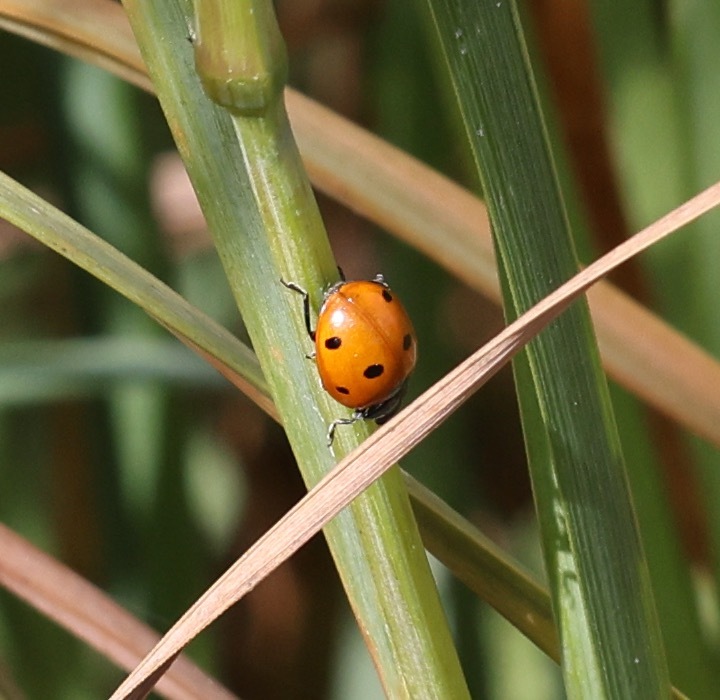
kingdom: Animalia
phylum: Arthropoda
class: Insecta
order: Coleoptera
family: Coccinellidae
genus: Coccinella
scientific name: Coccinella septempunctata
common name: Sevenspotted lady beetle
